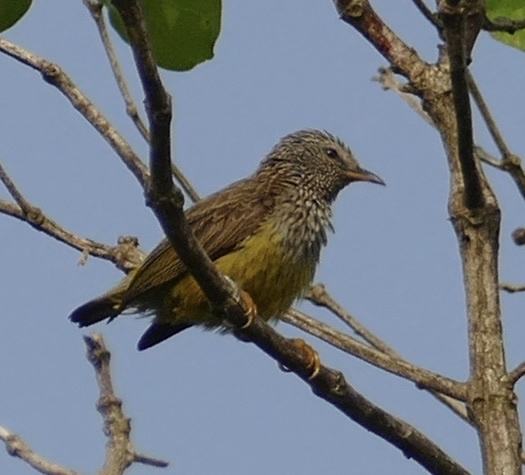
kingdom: Animalia
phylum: Chordata
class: Aves
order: Passeriformes
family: Cettiidae
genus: Pholidornis
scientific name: Pholidornis rushiae
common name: Tit-hylia
